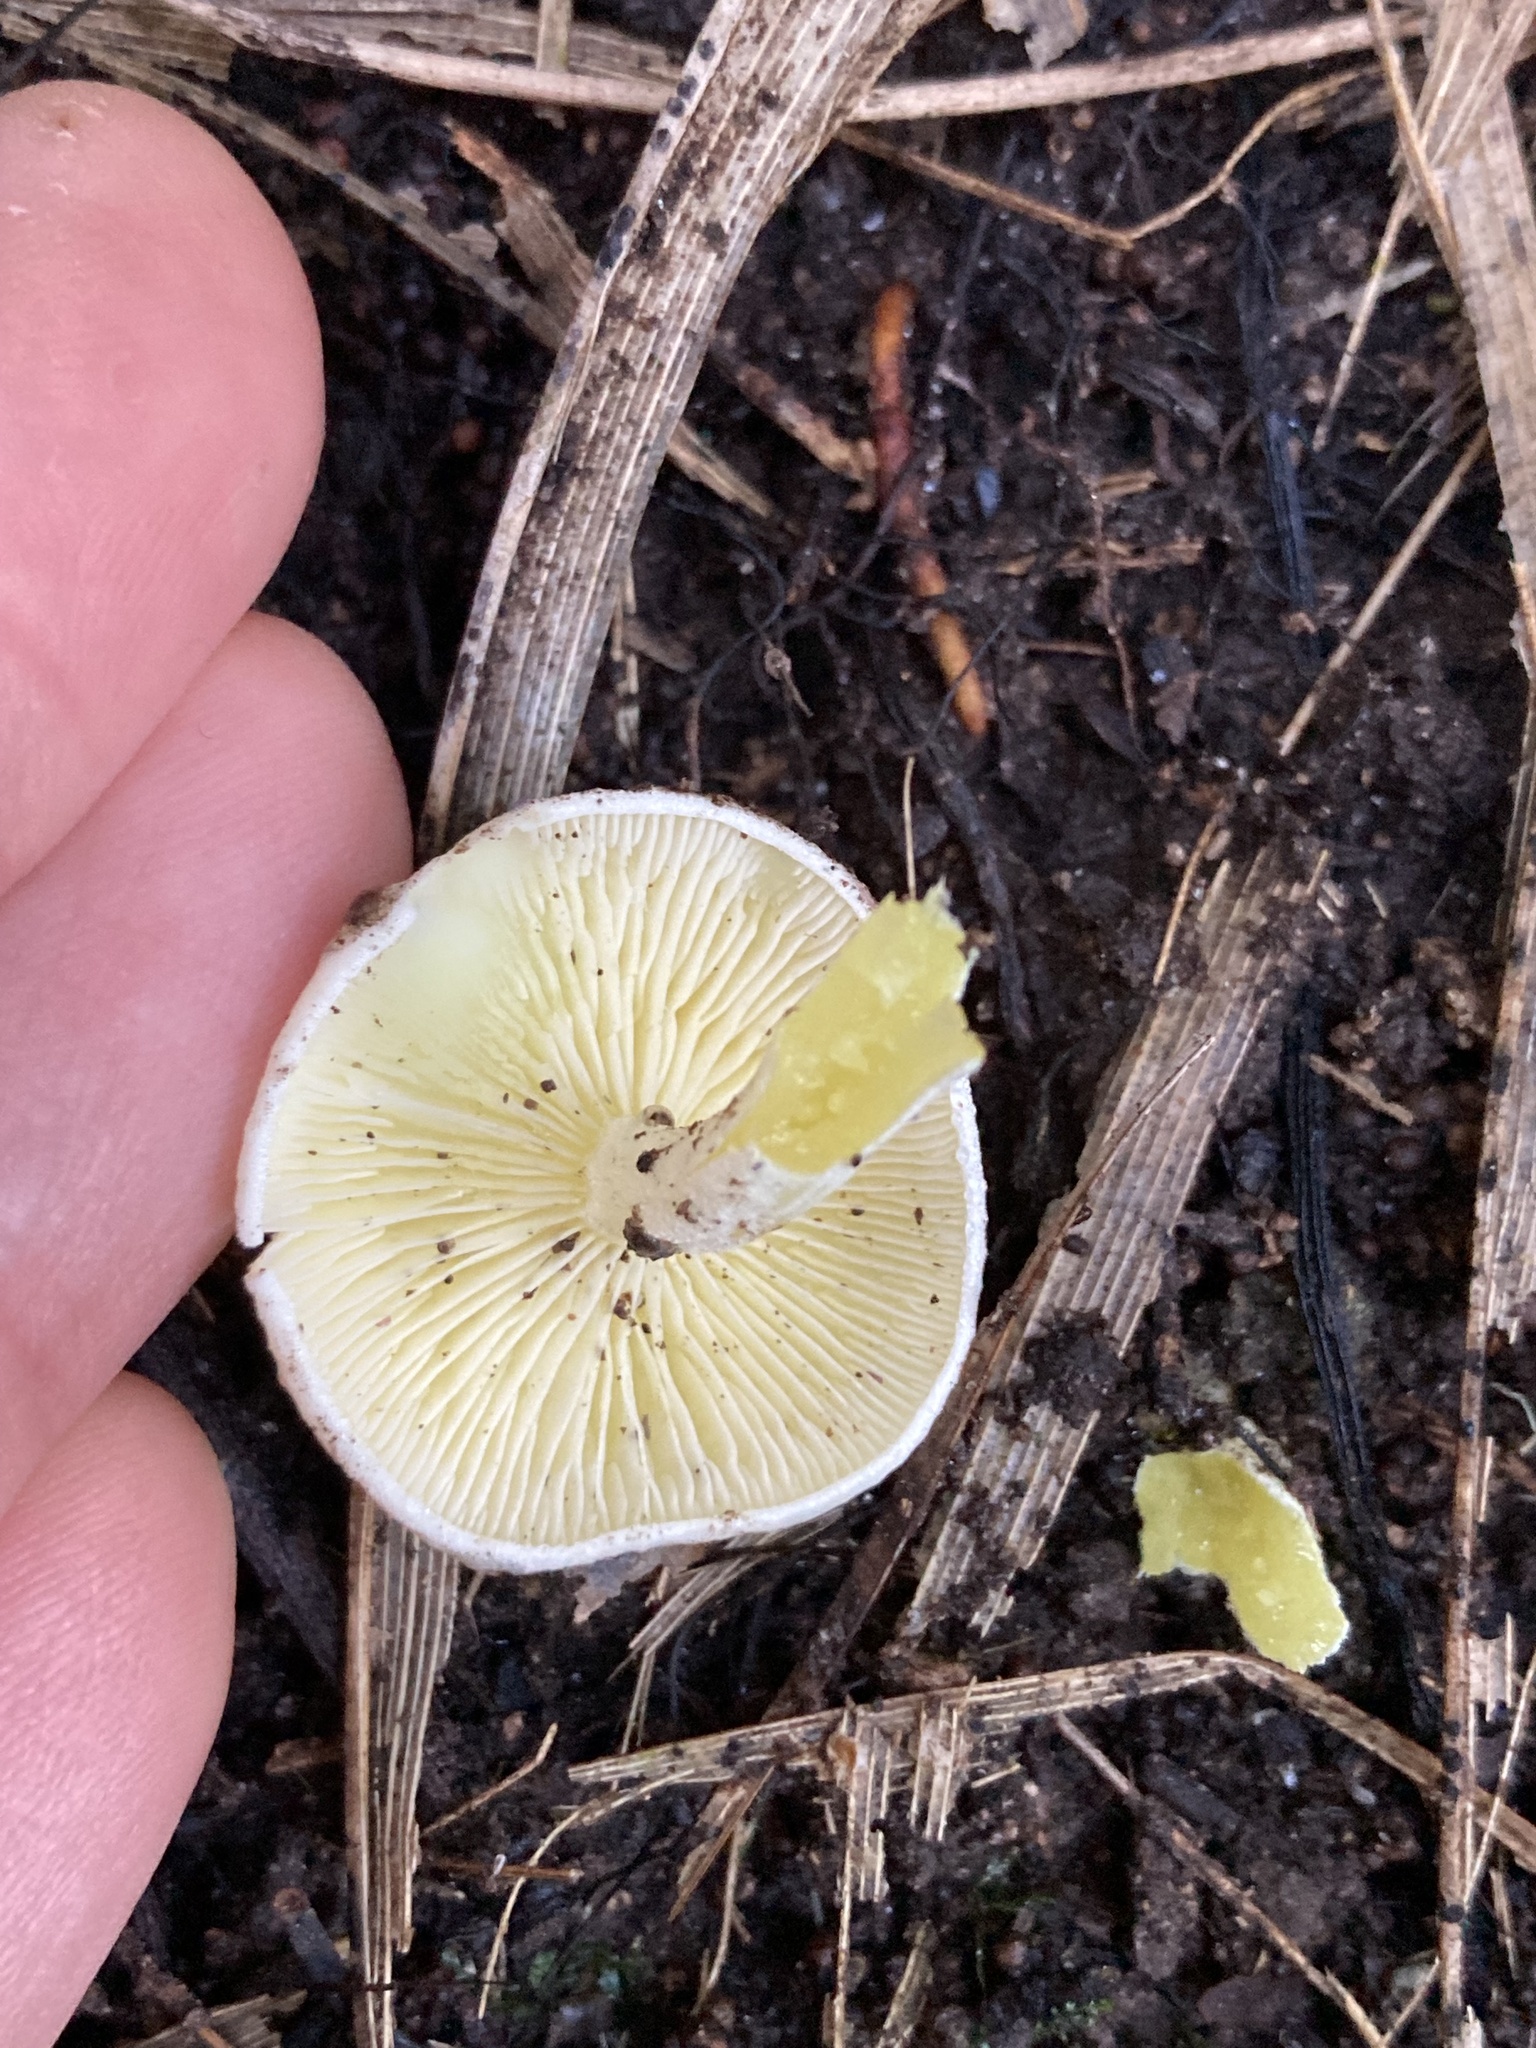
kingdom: Fungi
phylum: Basidiomycota
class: Agaricomycetes
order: Agaricales
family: Hygrophoraceae
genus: Hygrophorus
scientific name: Hygrophorus involutus
